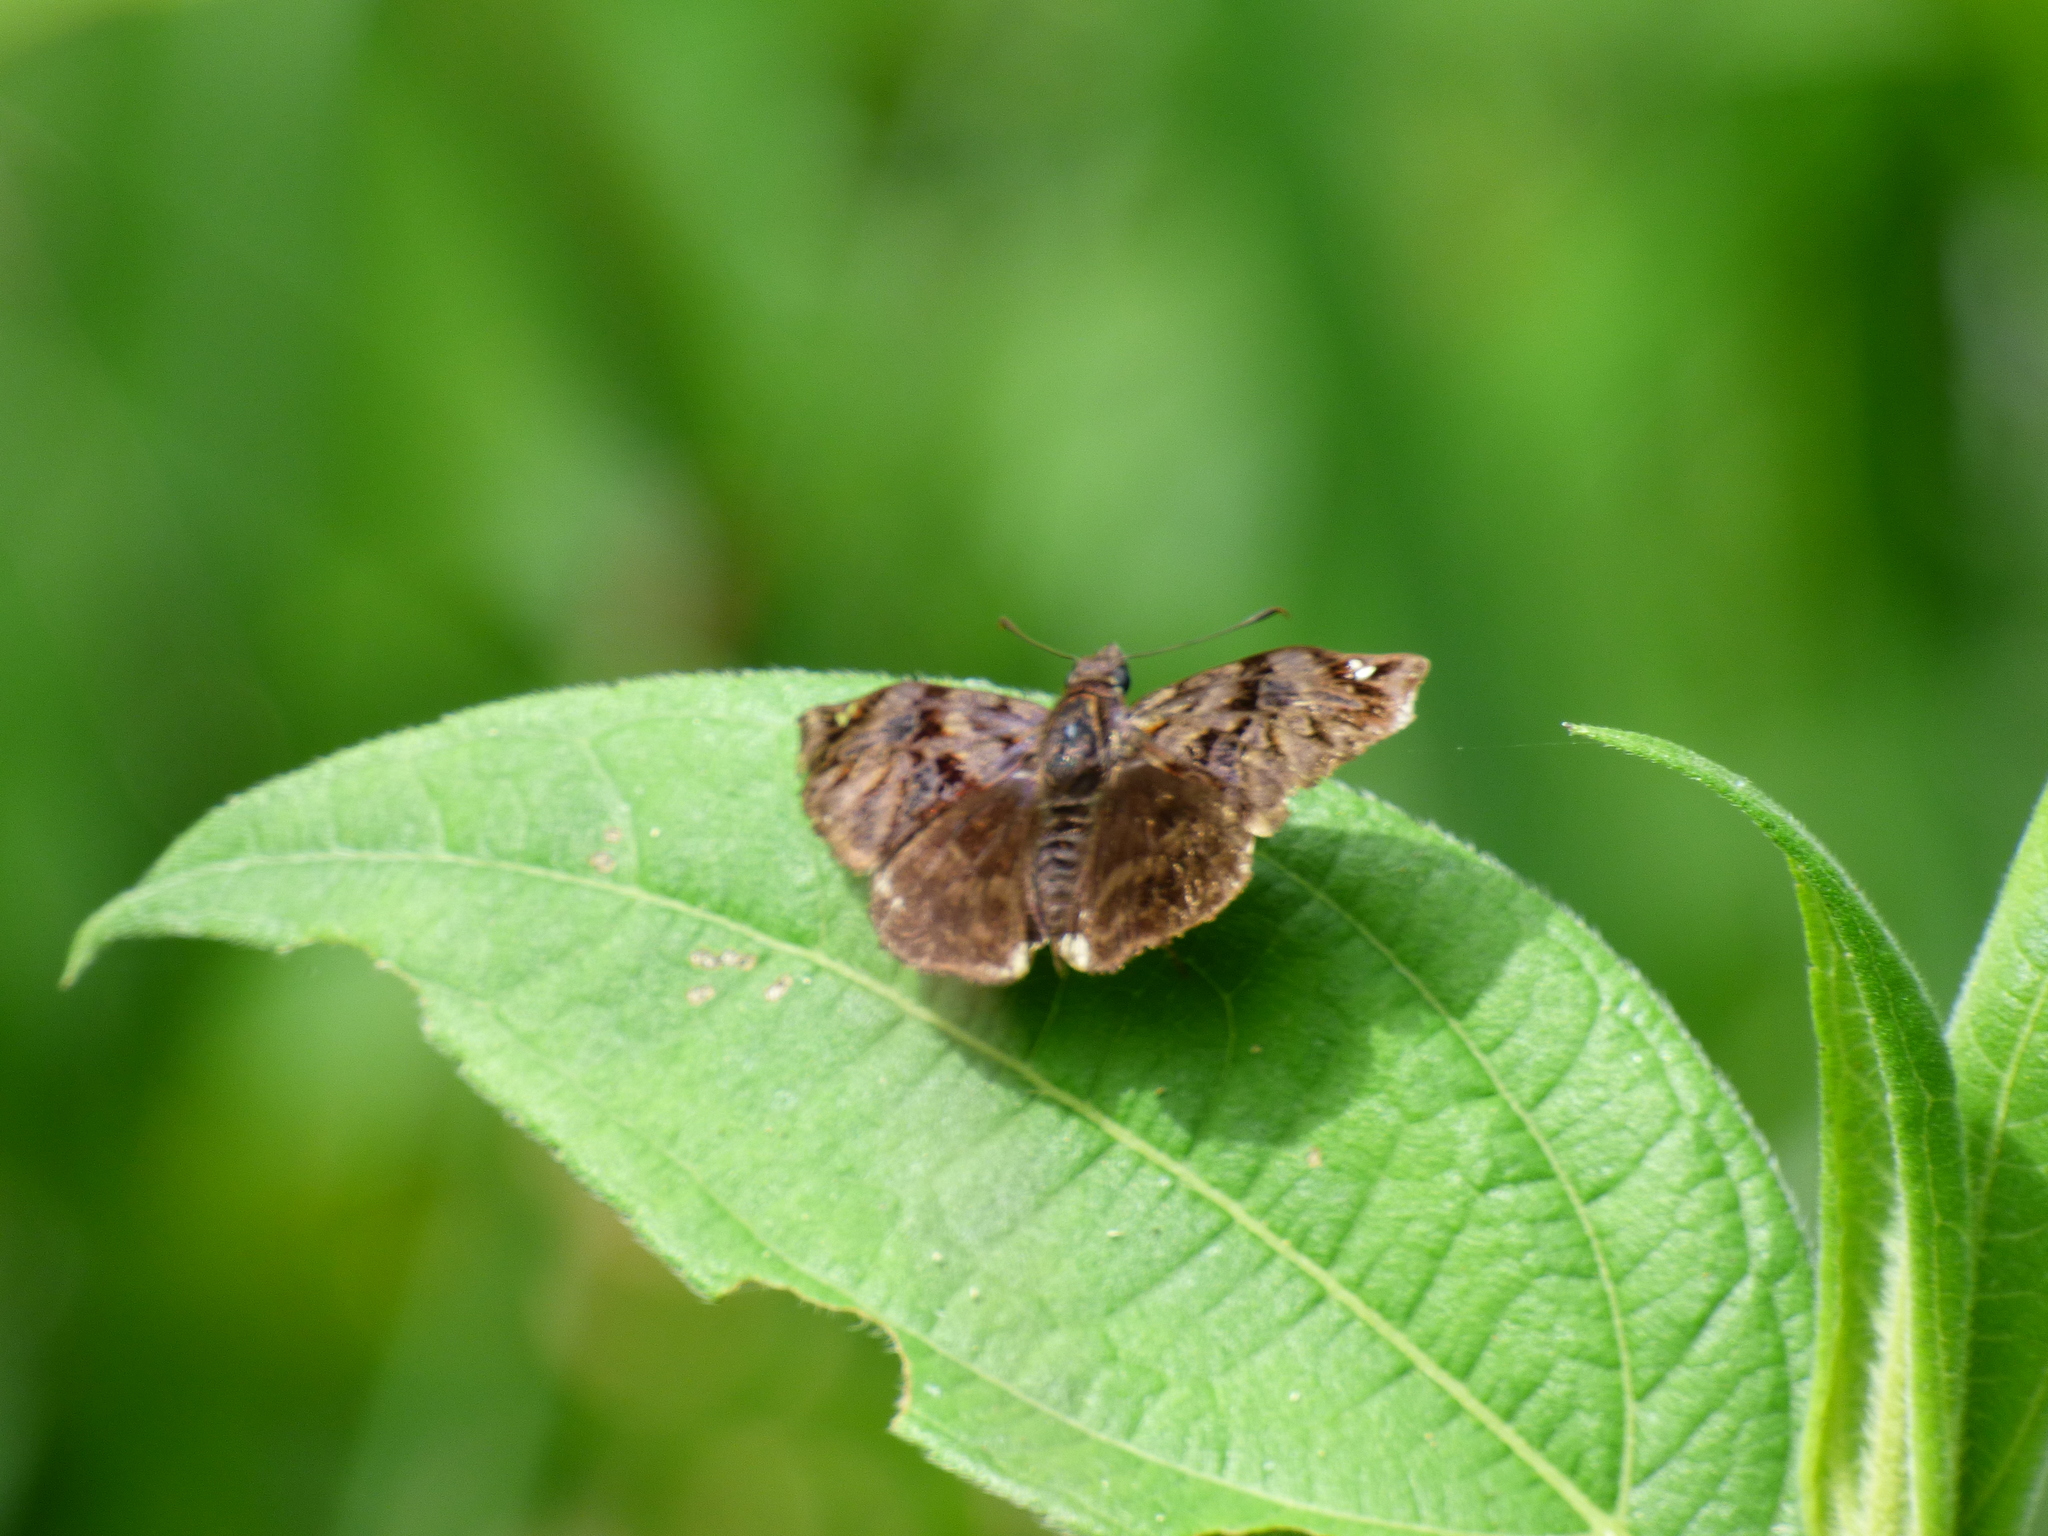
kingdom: Animalia
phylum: Arthropoda
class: Insecta
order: Lepidoptera
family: Hesperiidae
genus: Noctuana
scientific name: Noctuana haematospila
